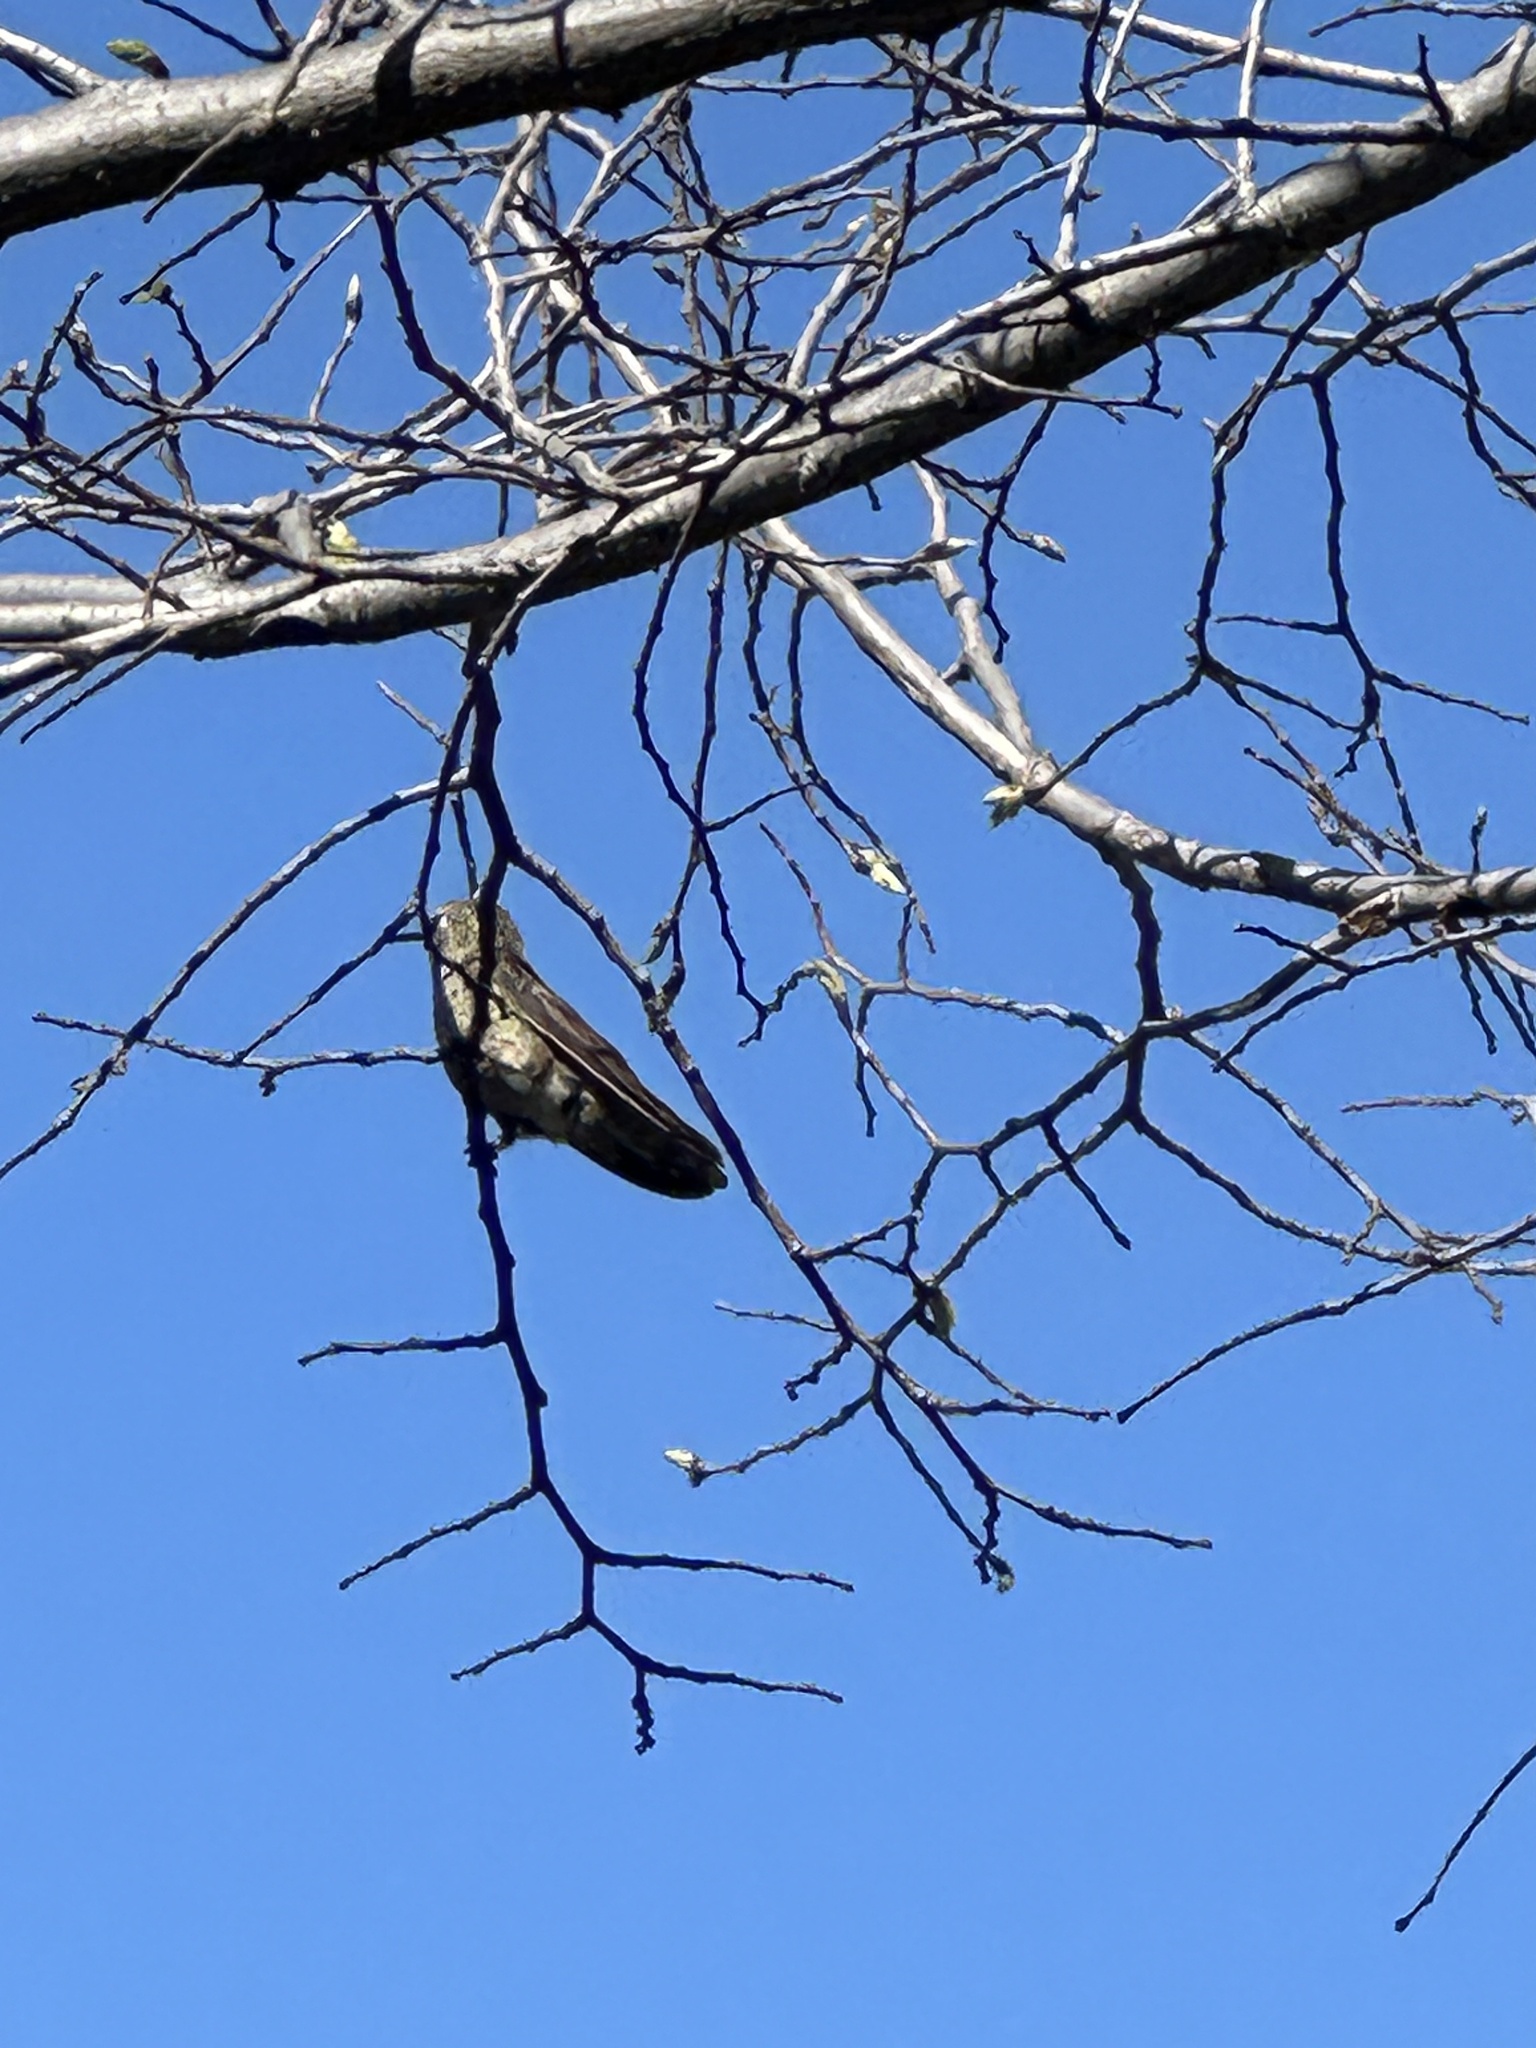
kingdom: Animalia
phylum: Chordata
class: Aves
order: Apodiformes
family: Trochilidae
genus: Calypte
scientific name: Calypte anna
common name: Anna's hummingbird
